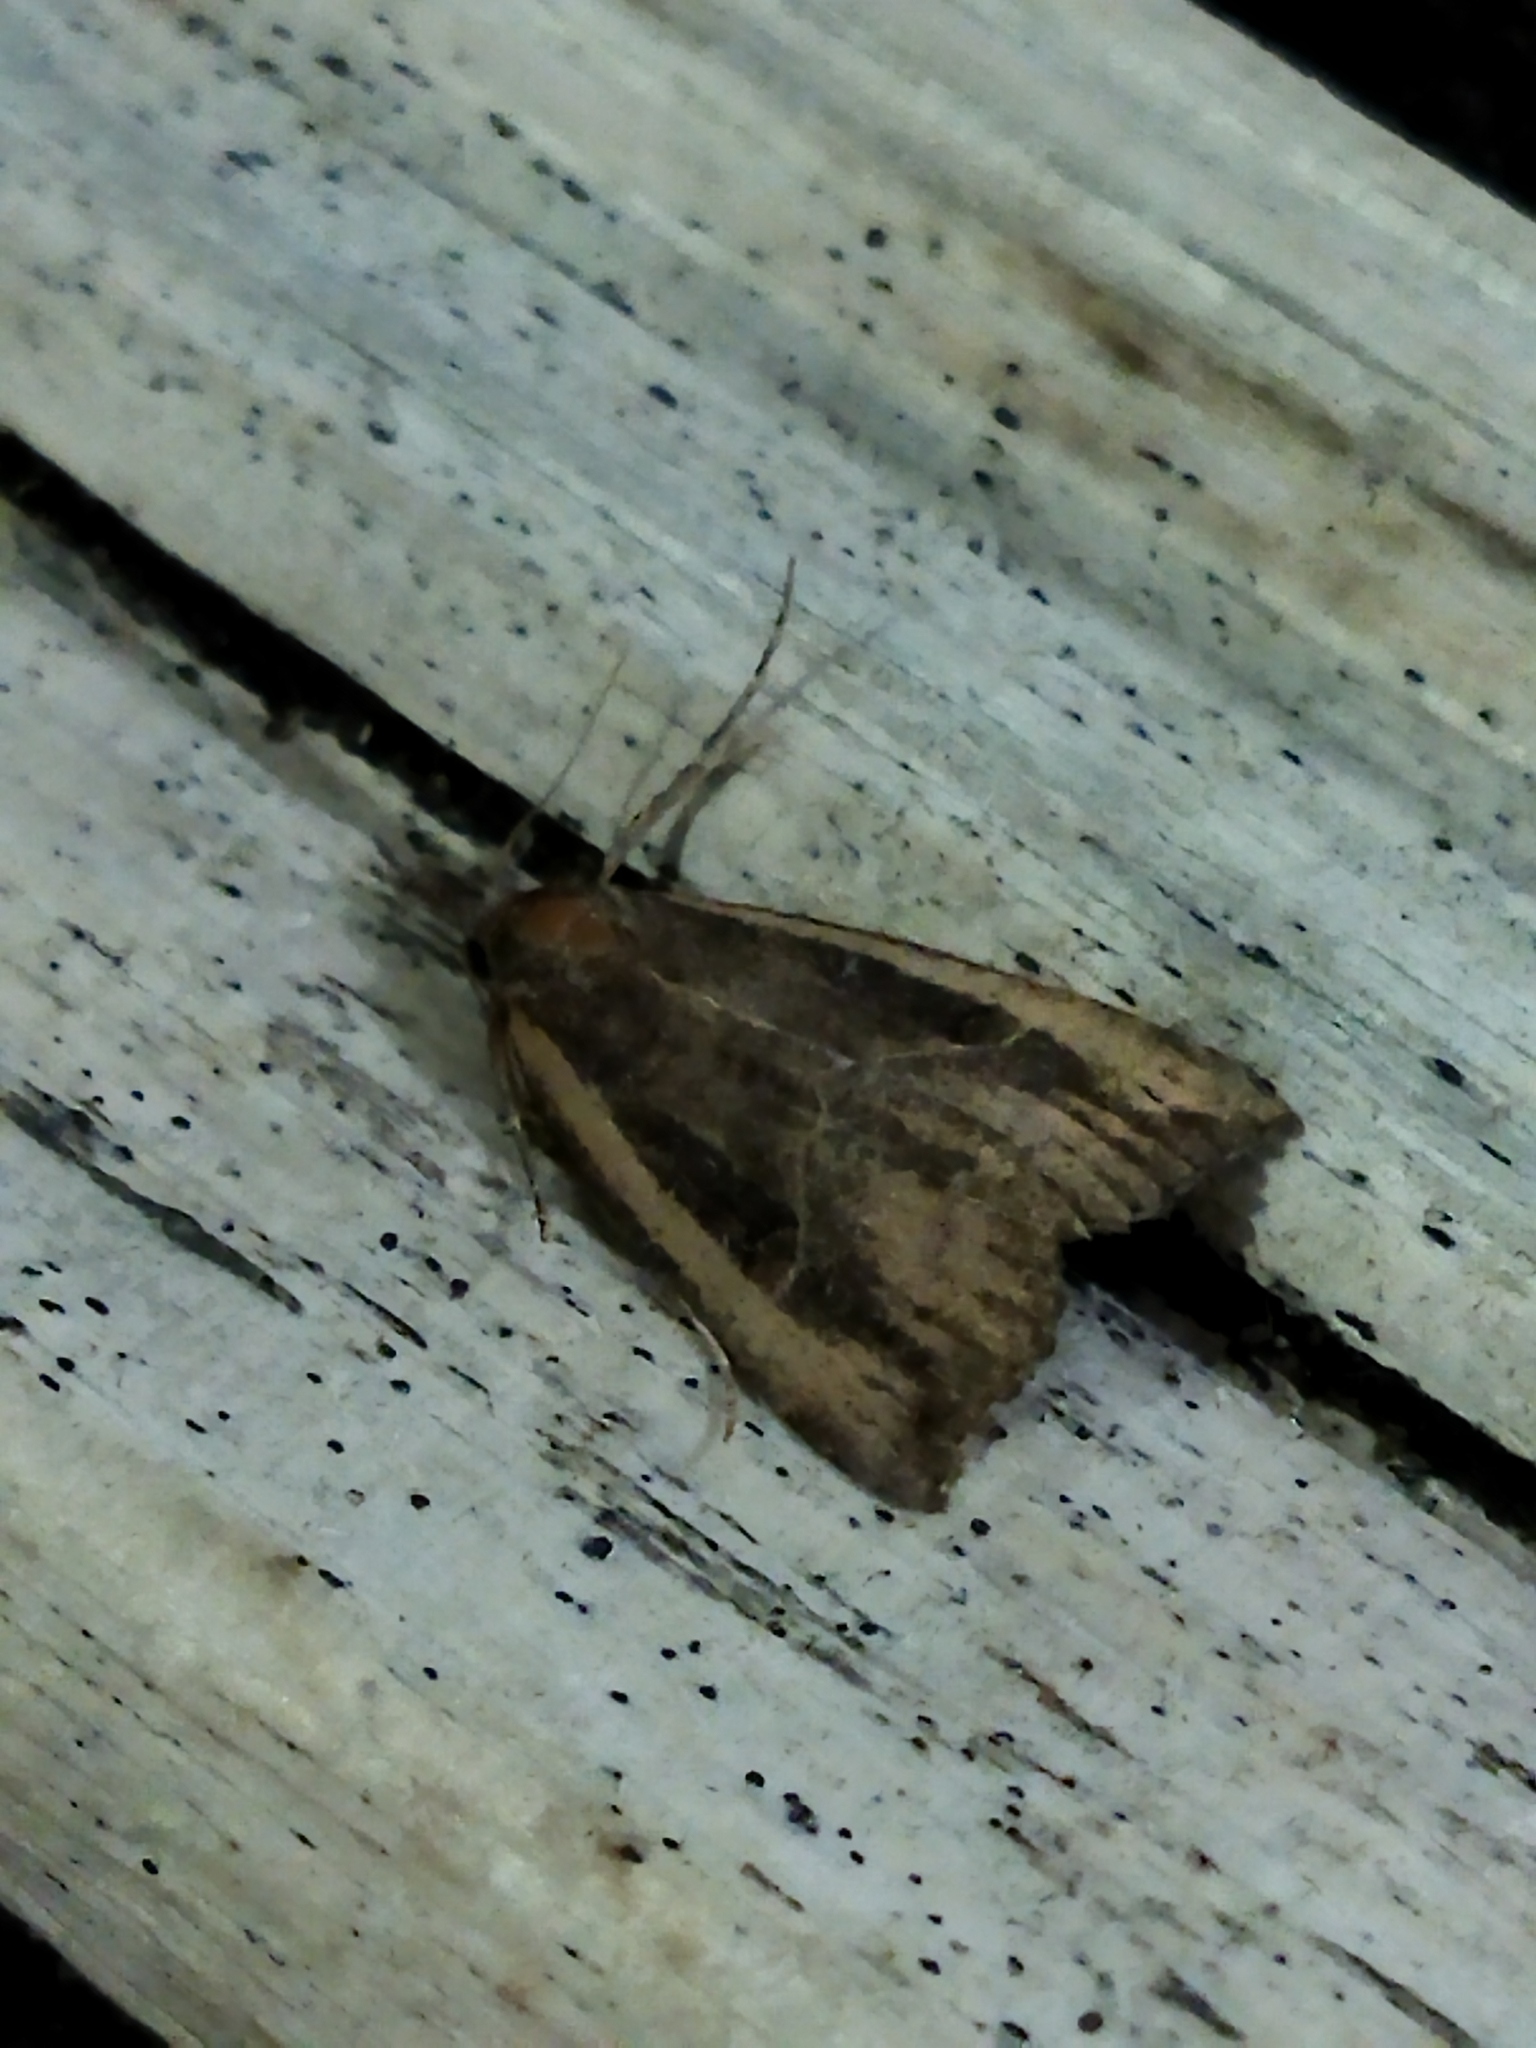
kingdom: Animalia
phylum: Arthropoda
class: Insecta
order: Lepidoptera
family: Erebidae
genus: Hypena
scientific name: Hypena rostralis
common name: Buttoned snout
